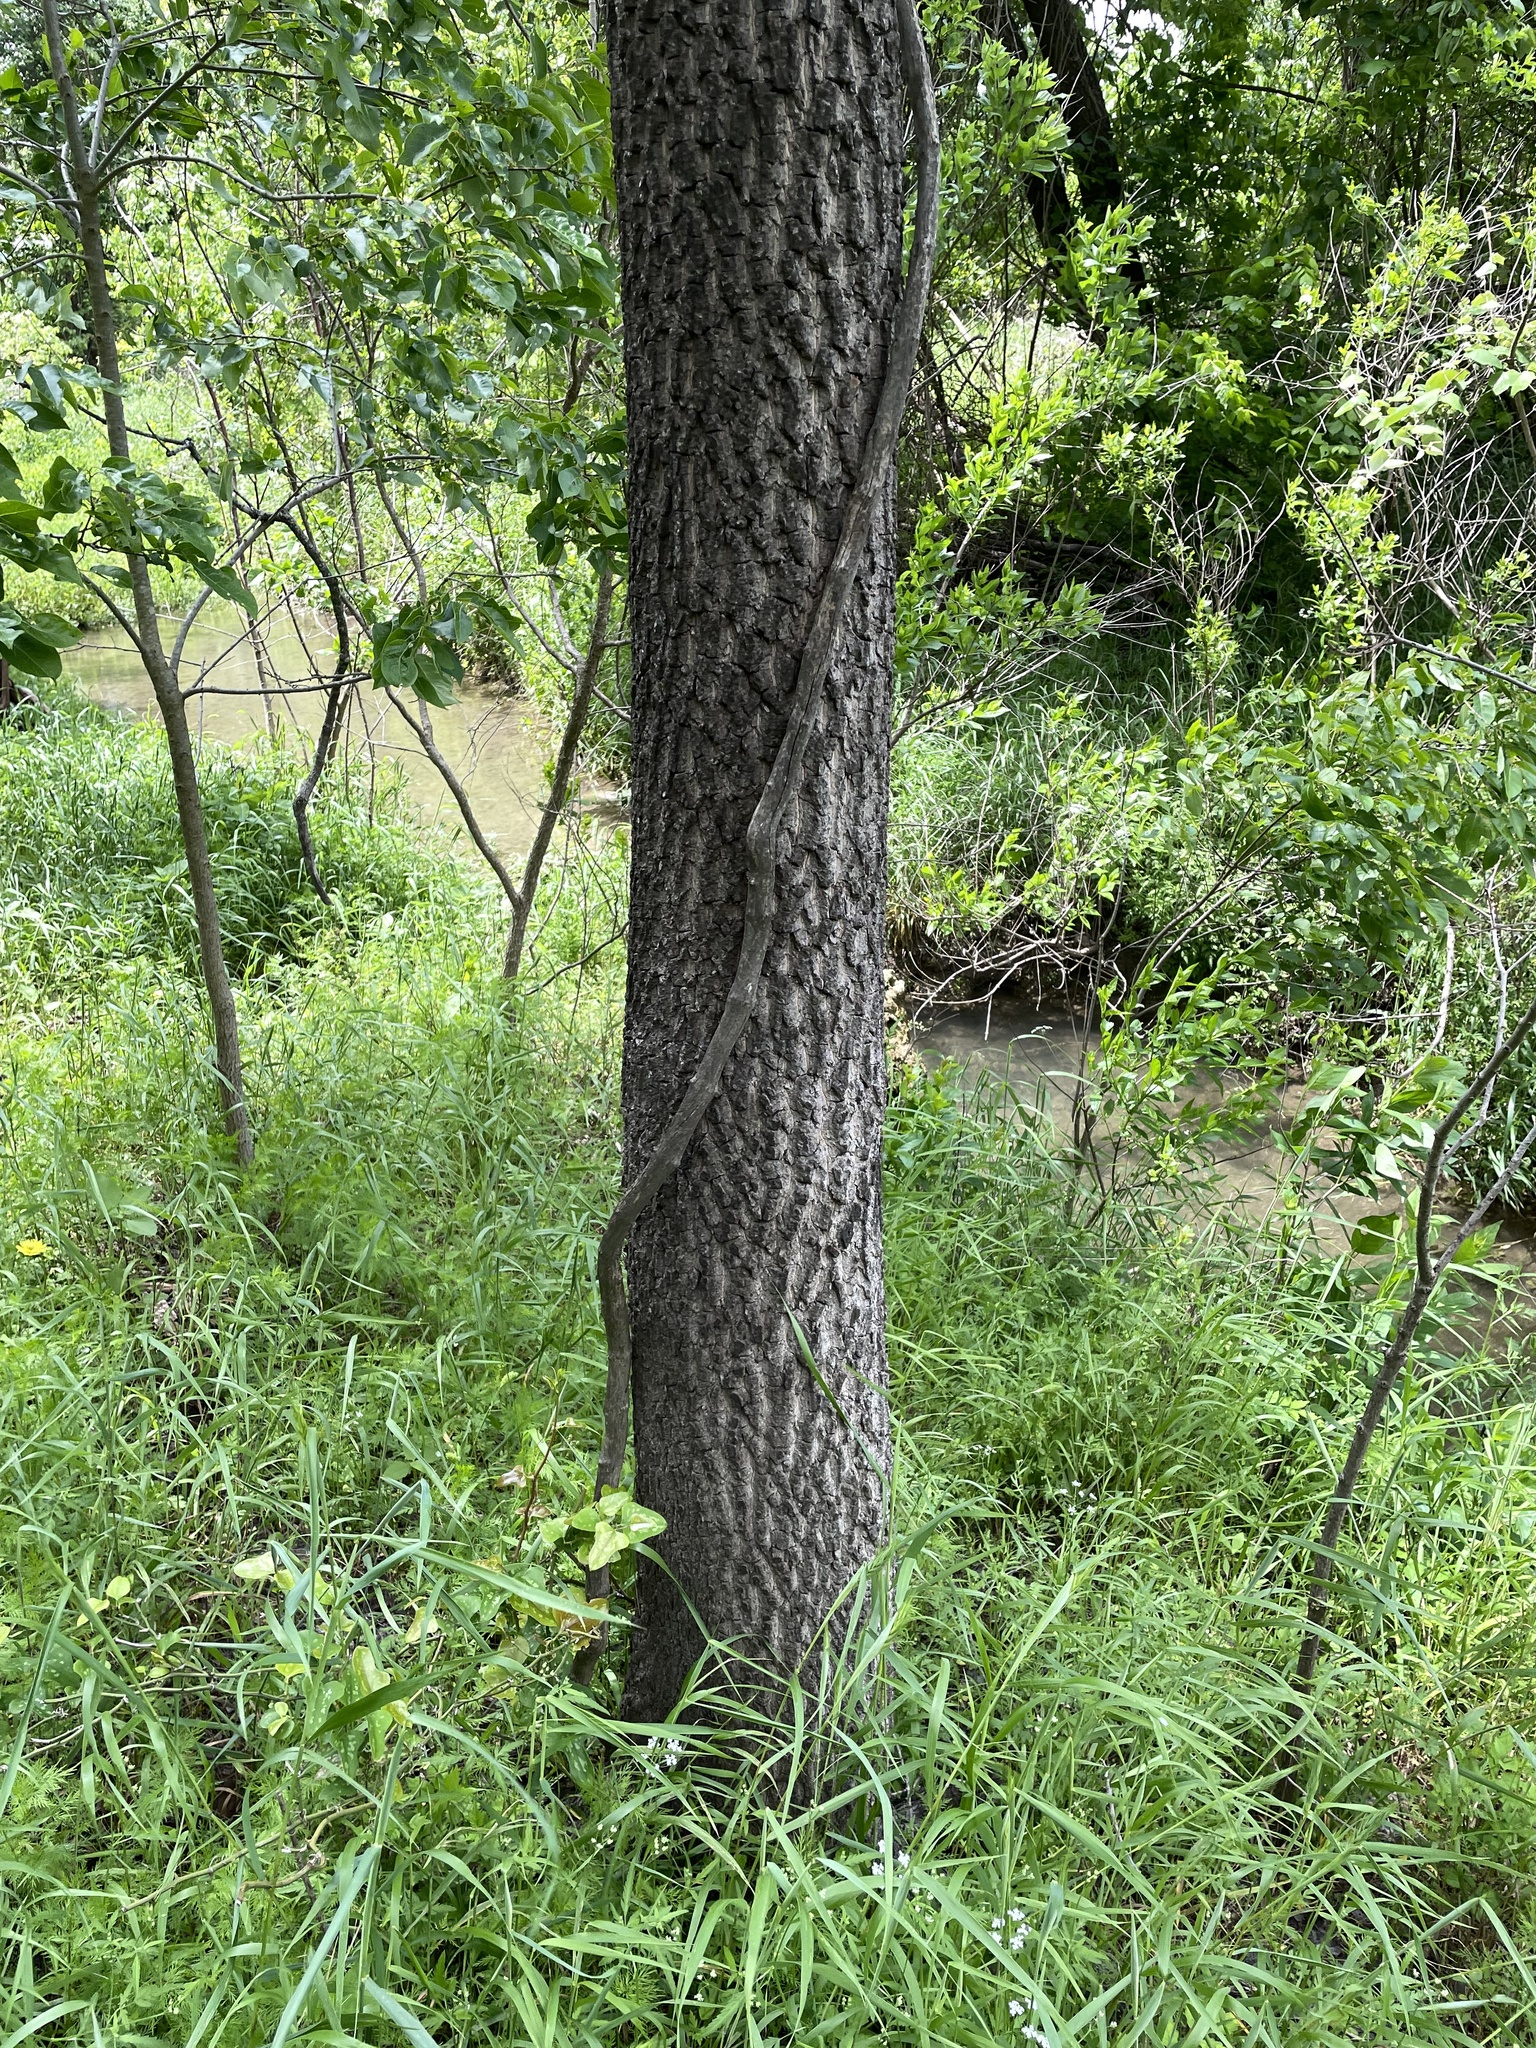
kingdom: Plantae
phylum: Tracheophyta
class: Magnoliopsida
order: Ericales
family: Ebenaceae
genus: Diospyros
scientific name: Diospyros virginiana
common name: Persimmon
